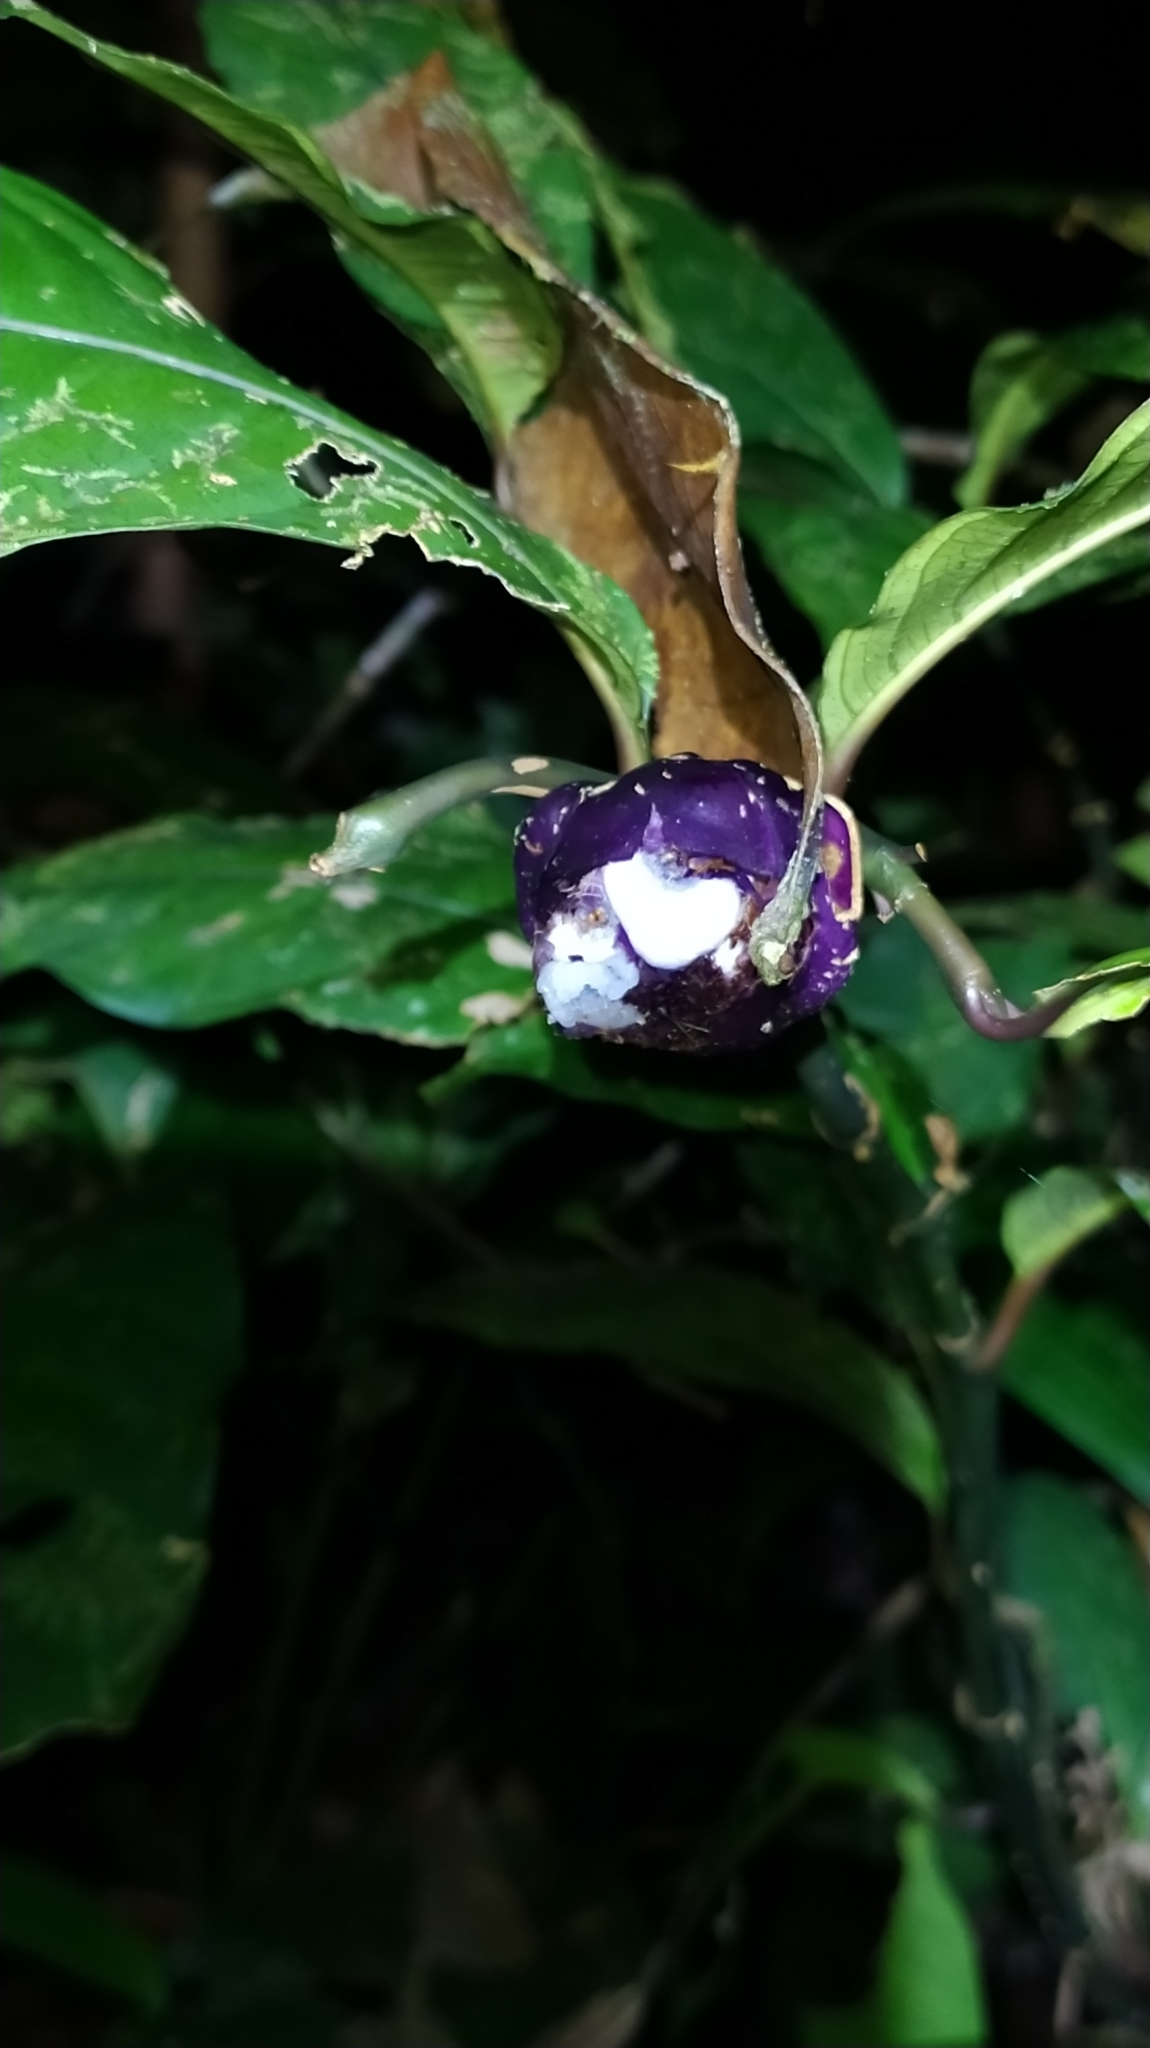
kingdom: Plantae
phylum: Tracheophyta
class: Magnoliopsida
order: Gentianales
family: Rubiaceae
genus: Palicourea
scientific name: Palicourea apoda
